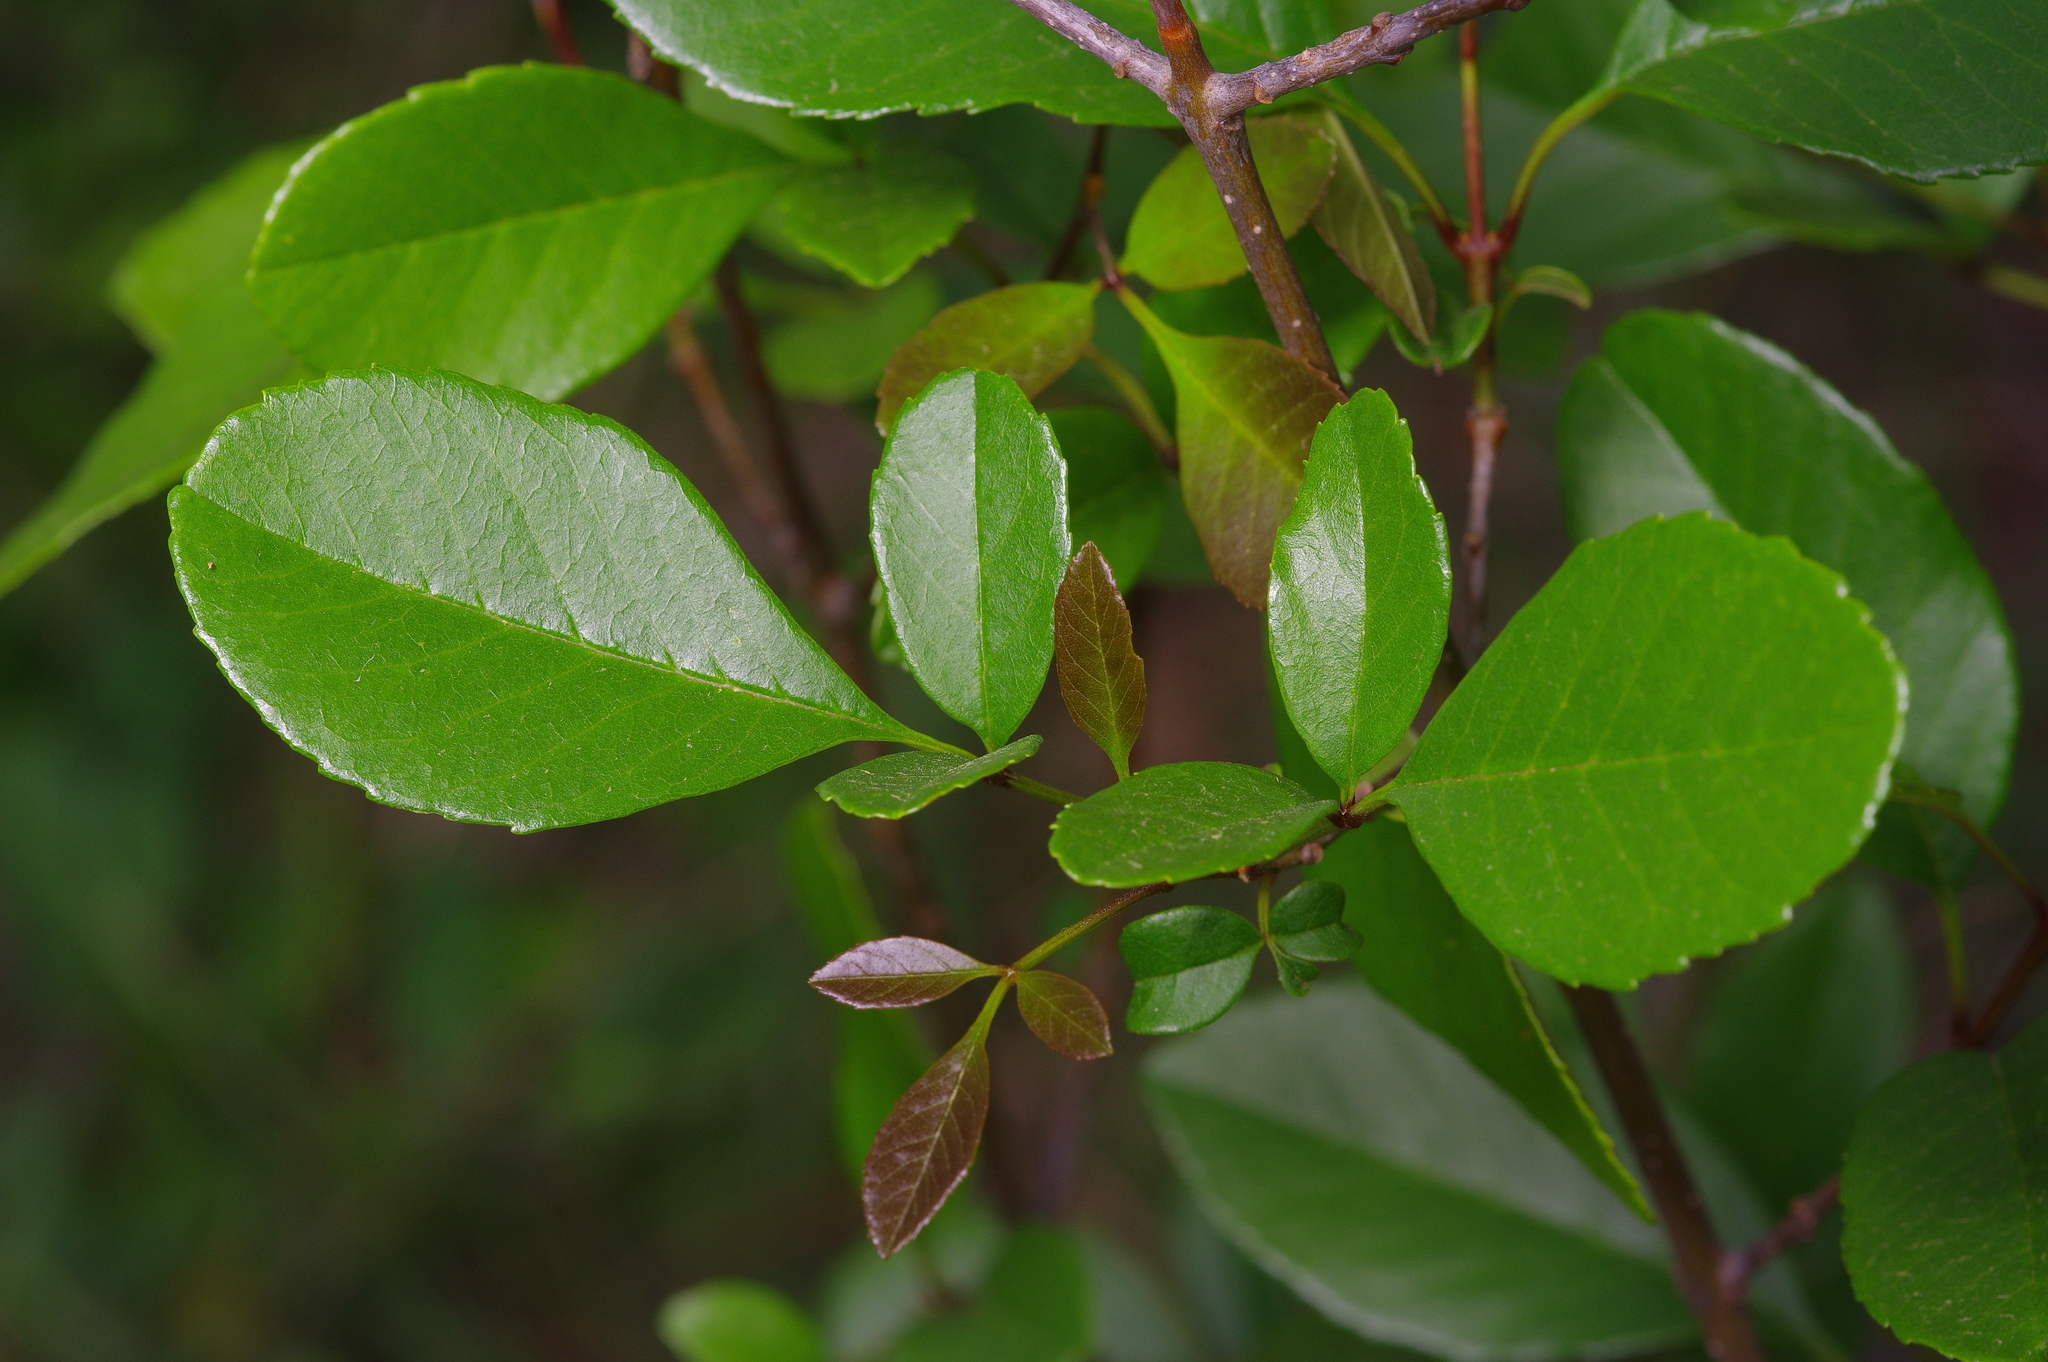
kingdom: Plantae
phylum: Tracheophyta
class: Magnoliopsida
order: Lamiales
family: Oleaceae
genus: Fraxinus
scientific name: Fraxinus berlandieriana
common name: Berlandier ash
